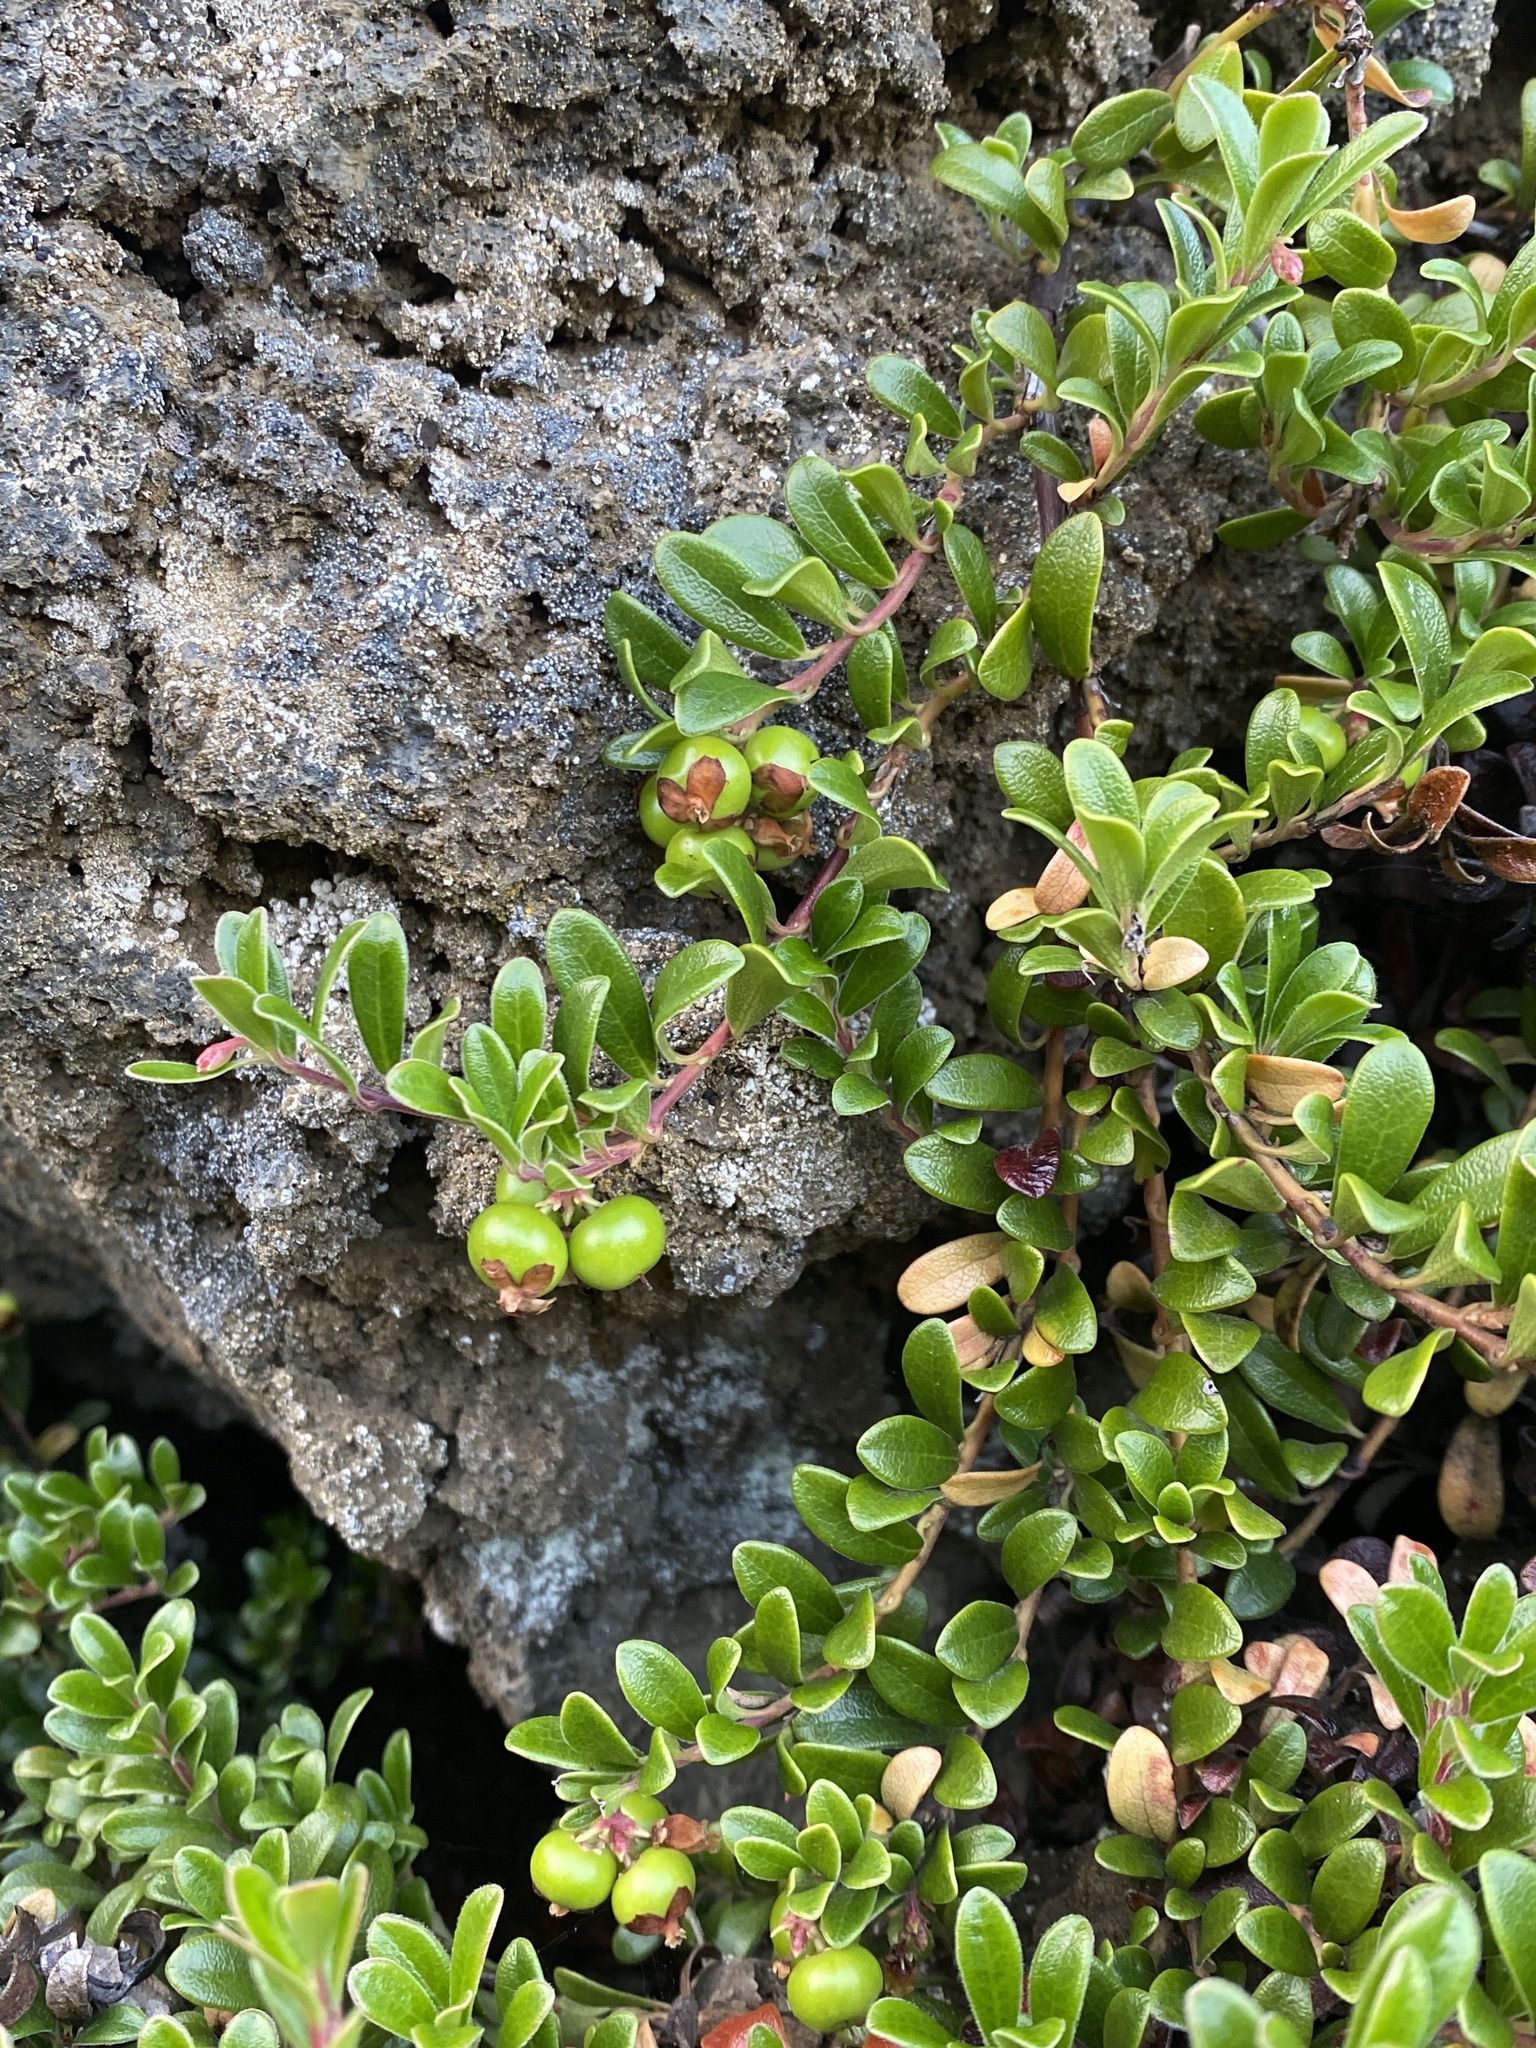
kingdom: Plantae
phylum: Tracheophyta
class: Magnoliopsida
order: Ericales
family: Ericaceae
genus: Arctostaphylos
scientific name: Arctostaphylos uva-ursi
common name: Bearberry
